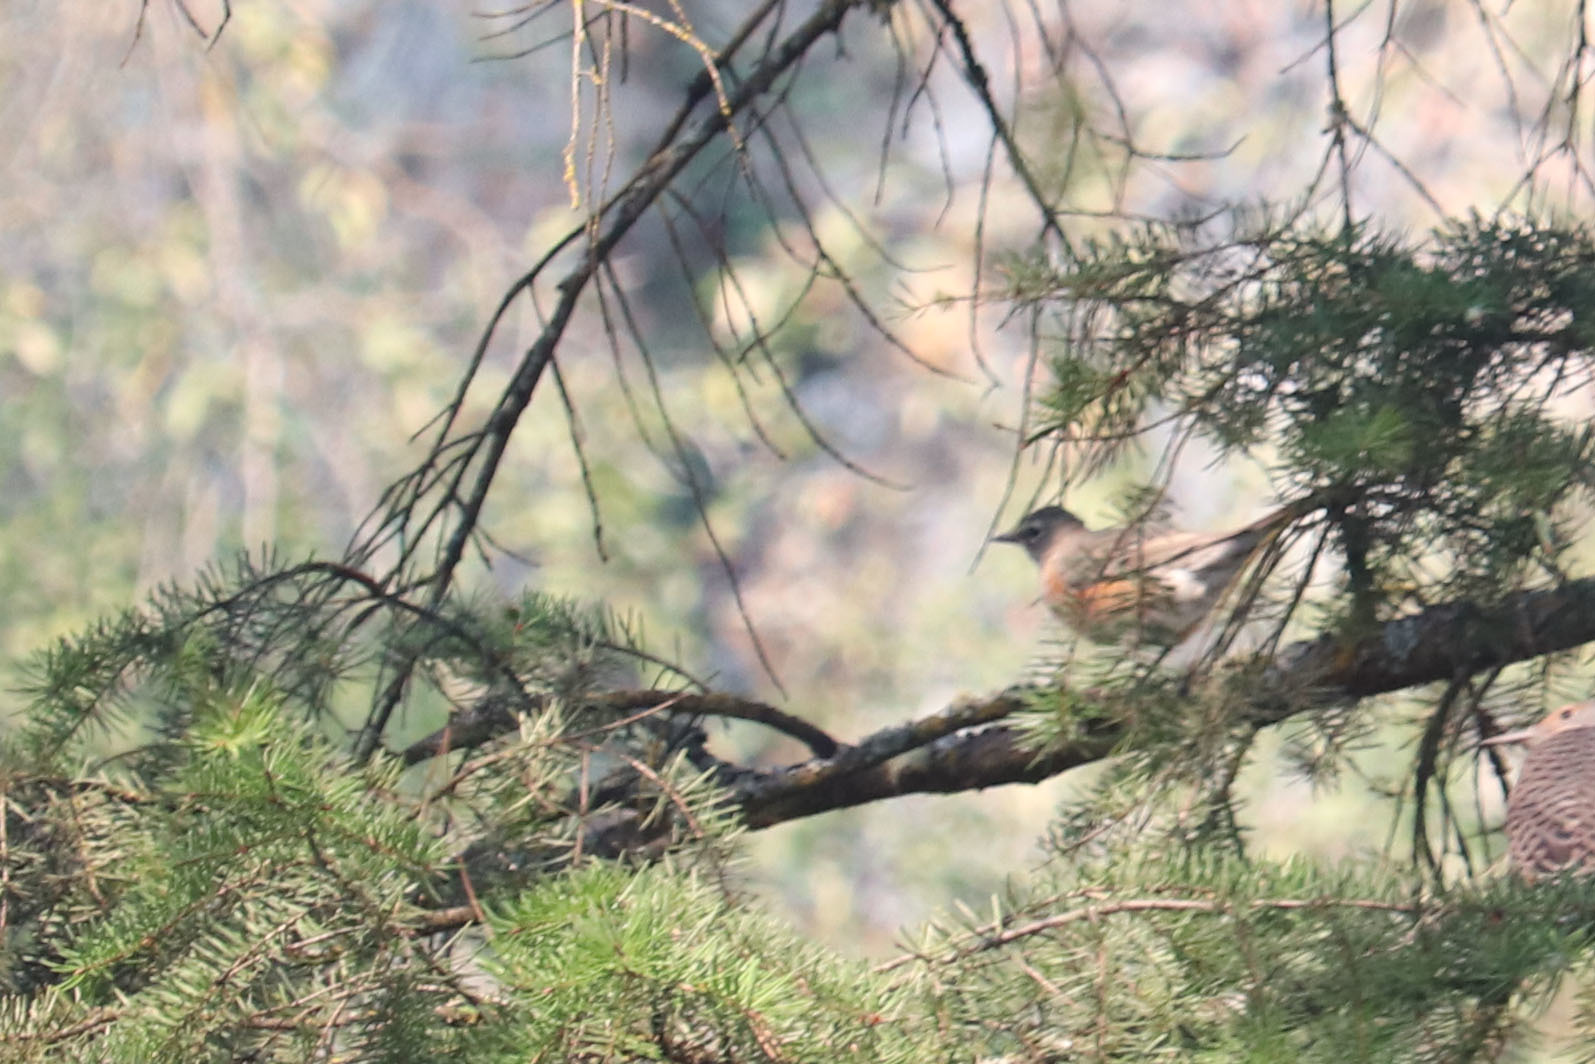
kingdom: Animalia
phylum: Chordata
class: Aves
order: Passeriformes
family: Turdidae
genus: Turdus
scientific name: Turdus migratorius
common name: American robin
